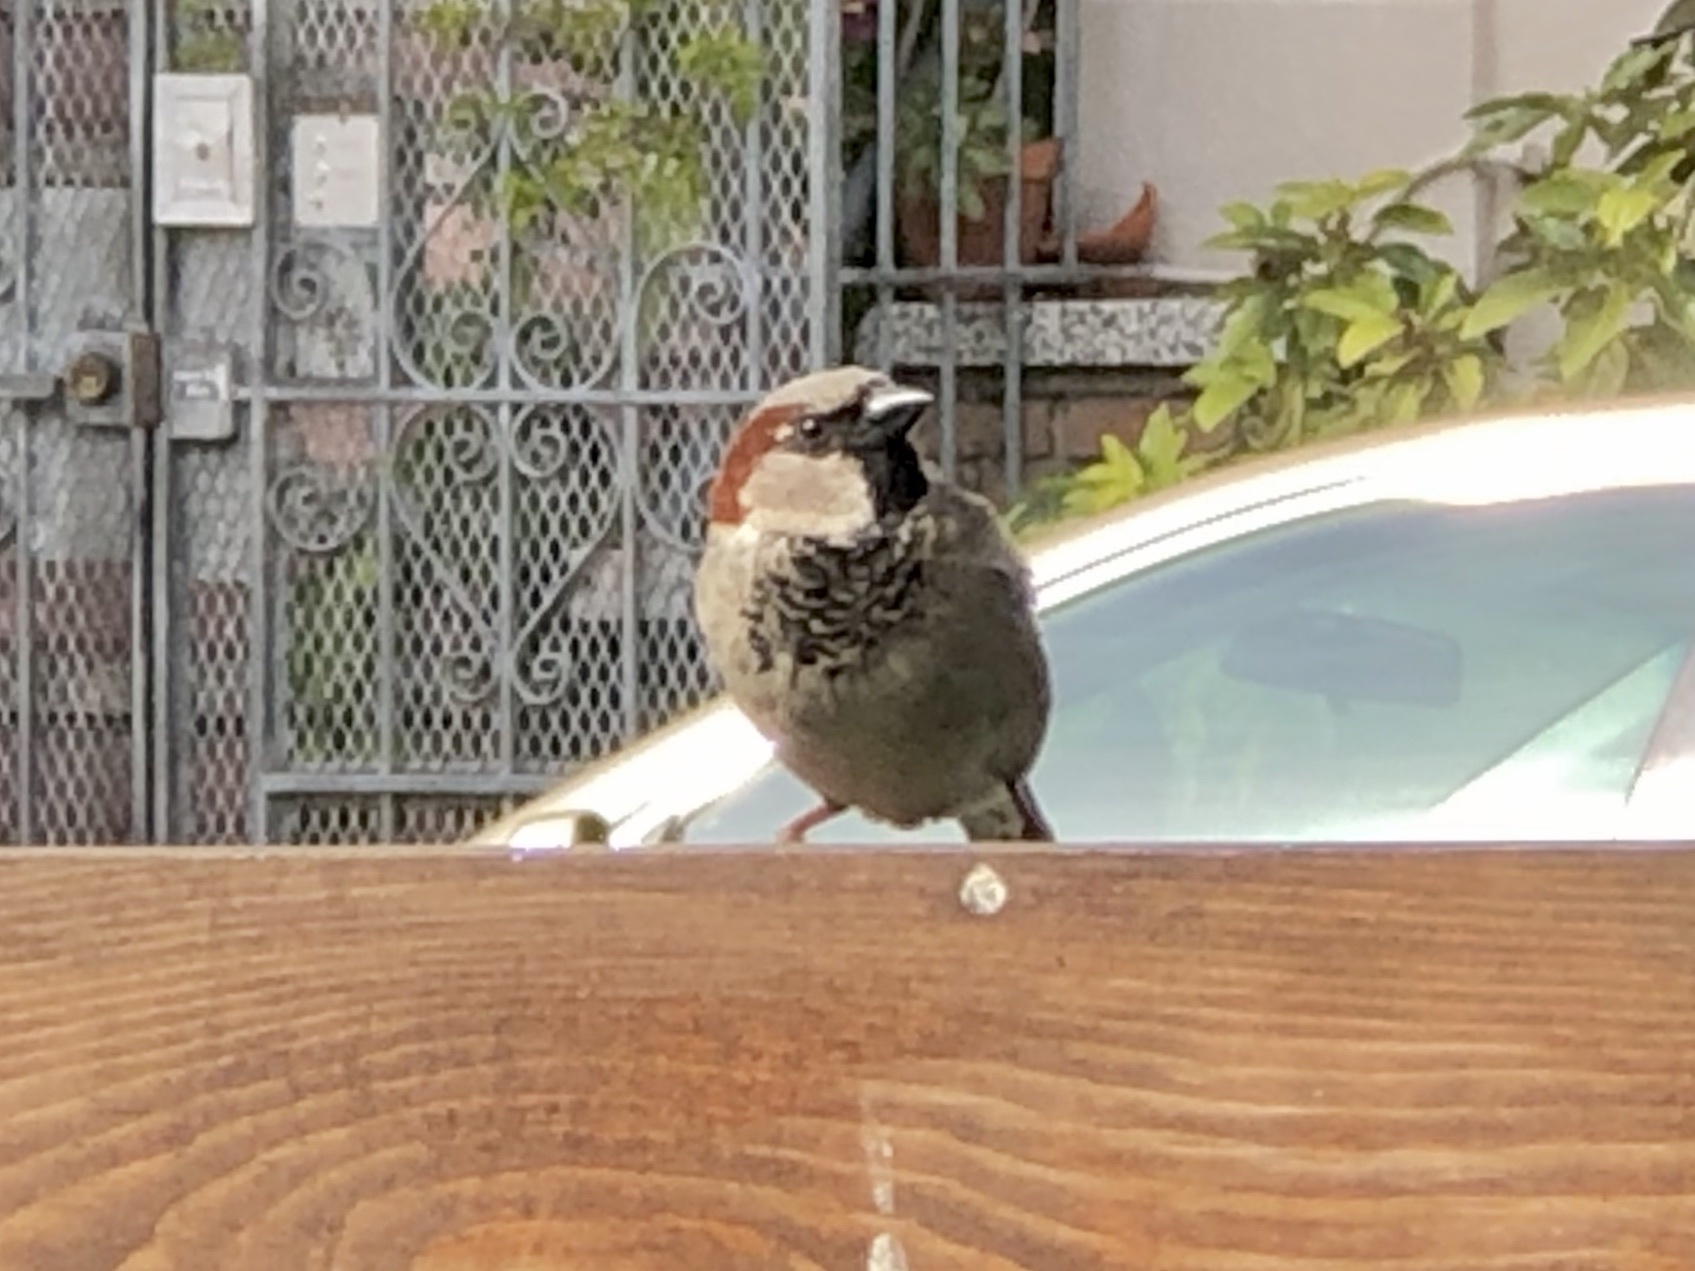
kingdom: Animalia
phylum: Chordata
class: Aves
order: Passeriformes
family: Passeridae
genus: Passer
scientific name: Passer domesticus
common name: House sparrow
